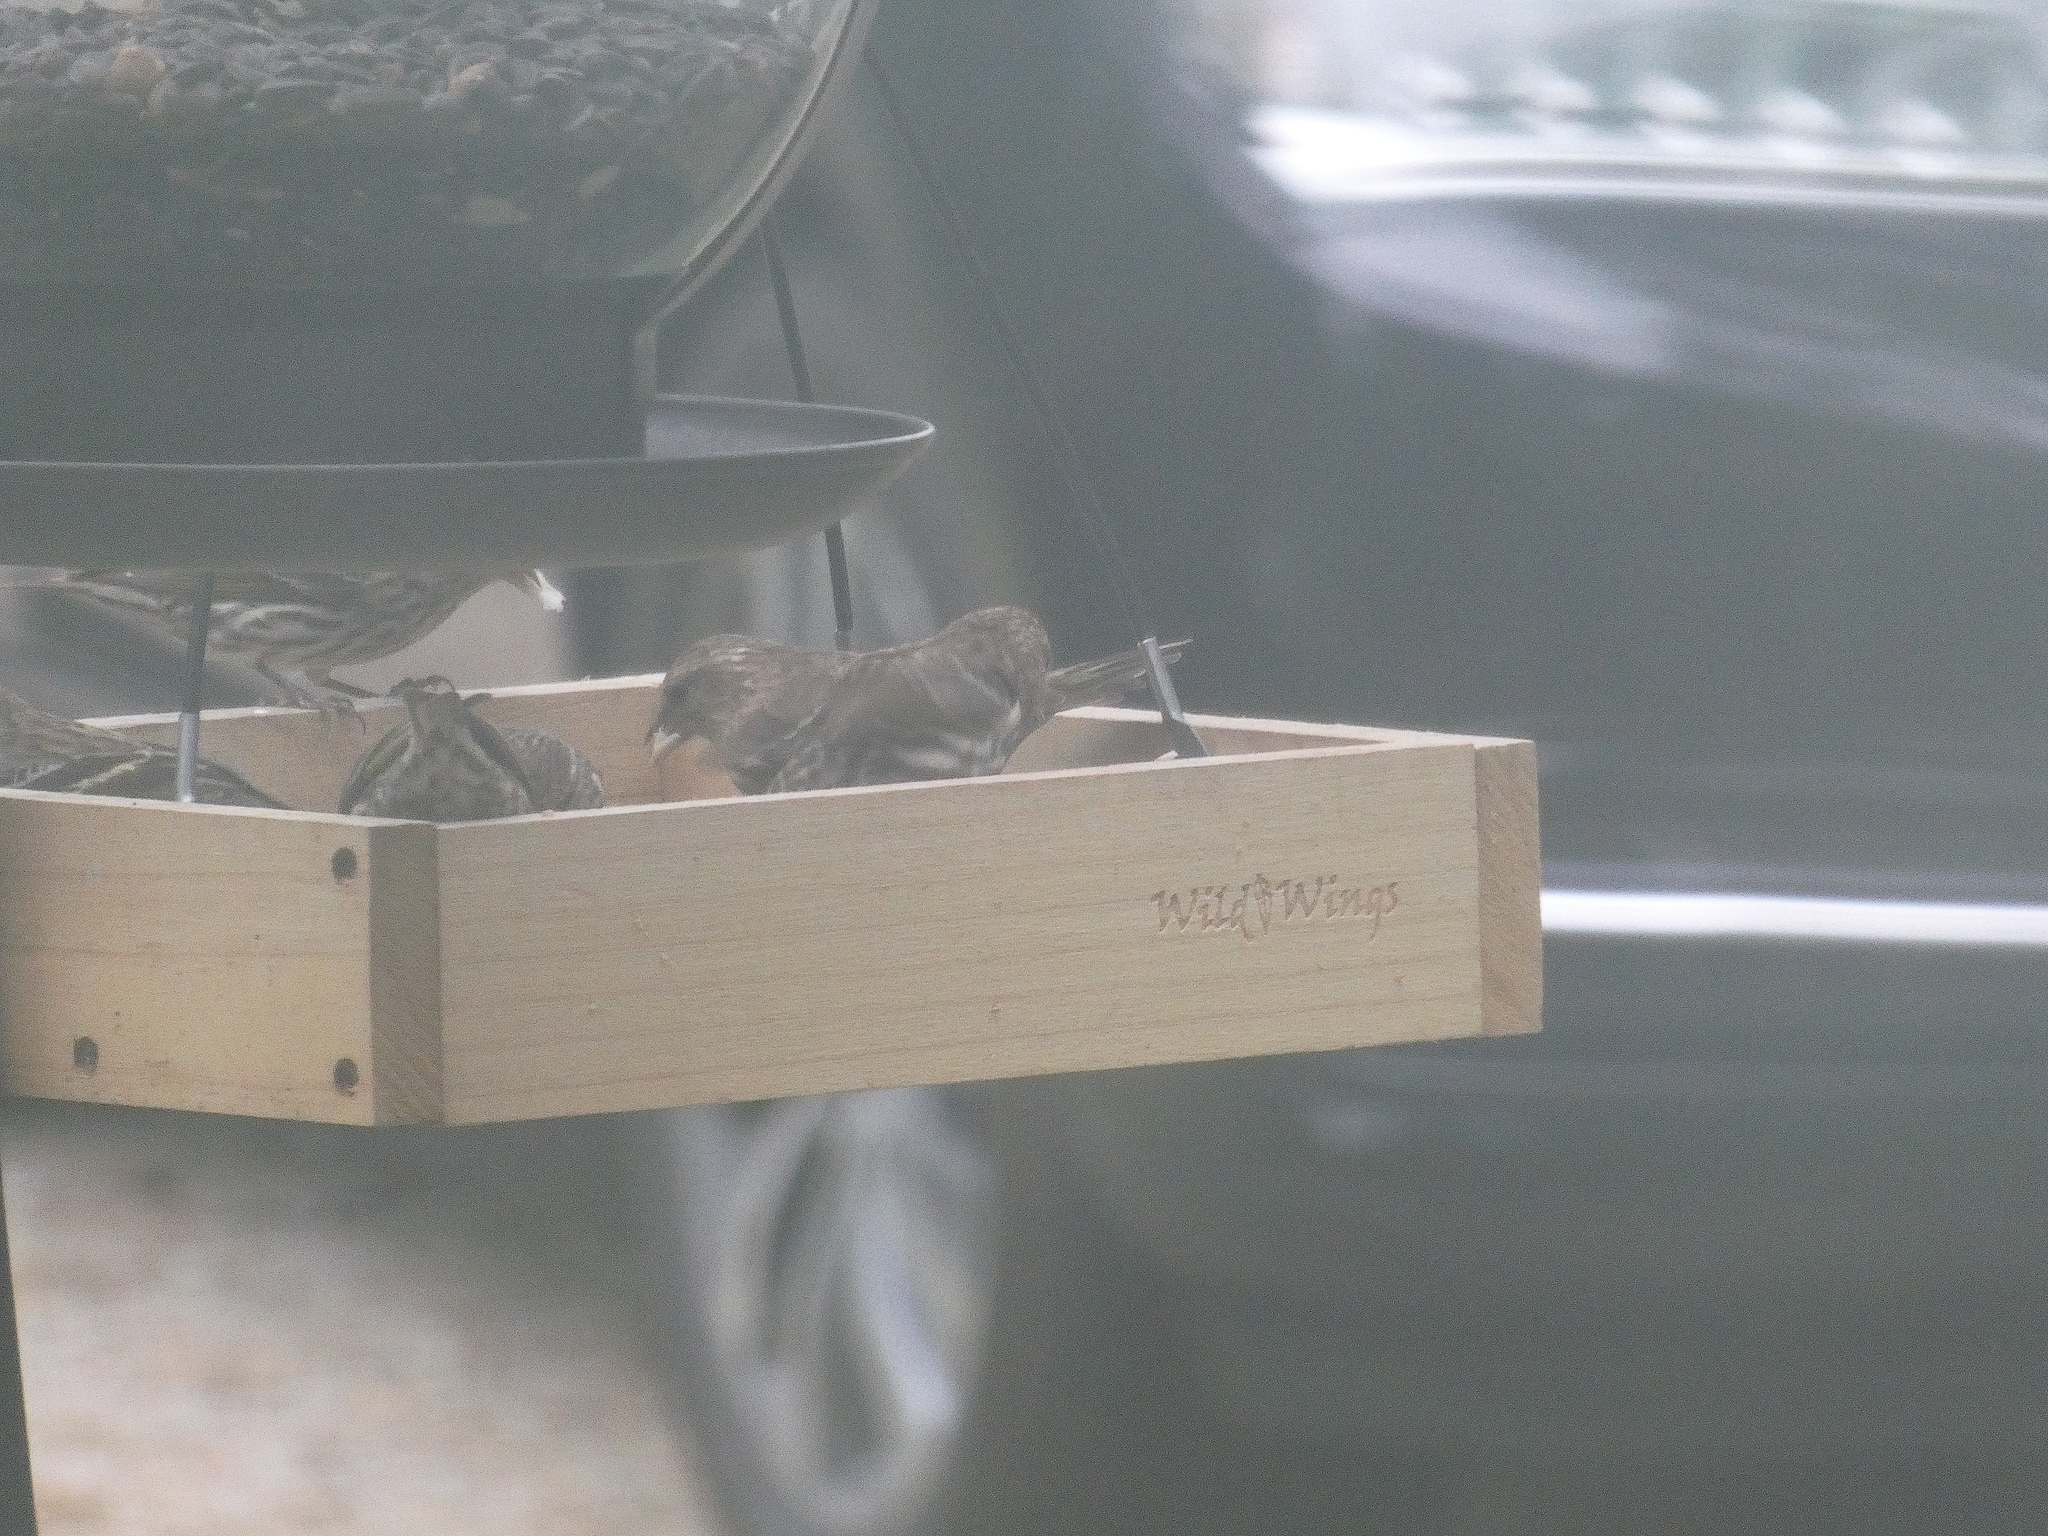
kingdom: Animalia
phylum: Chordata
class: Aves
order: Passeriformes
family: Fringillidae
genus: Spinus
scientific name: Spinus pinus
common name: Pine siskin
